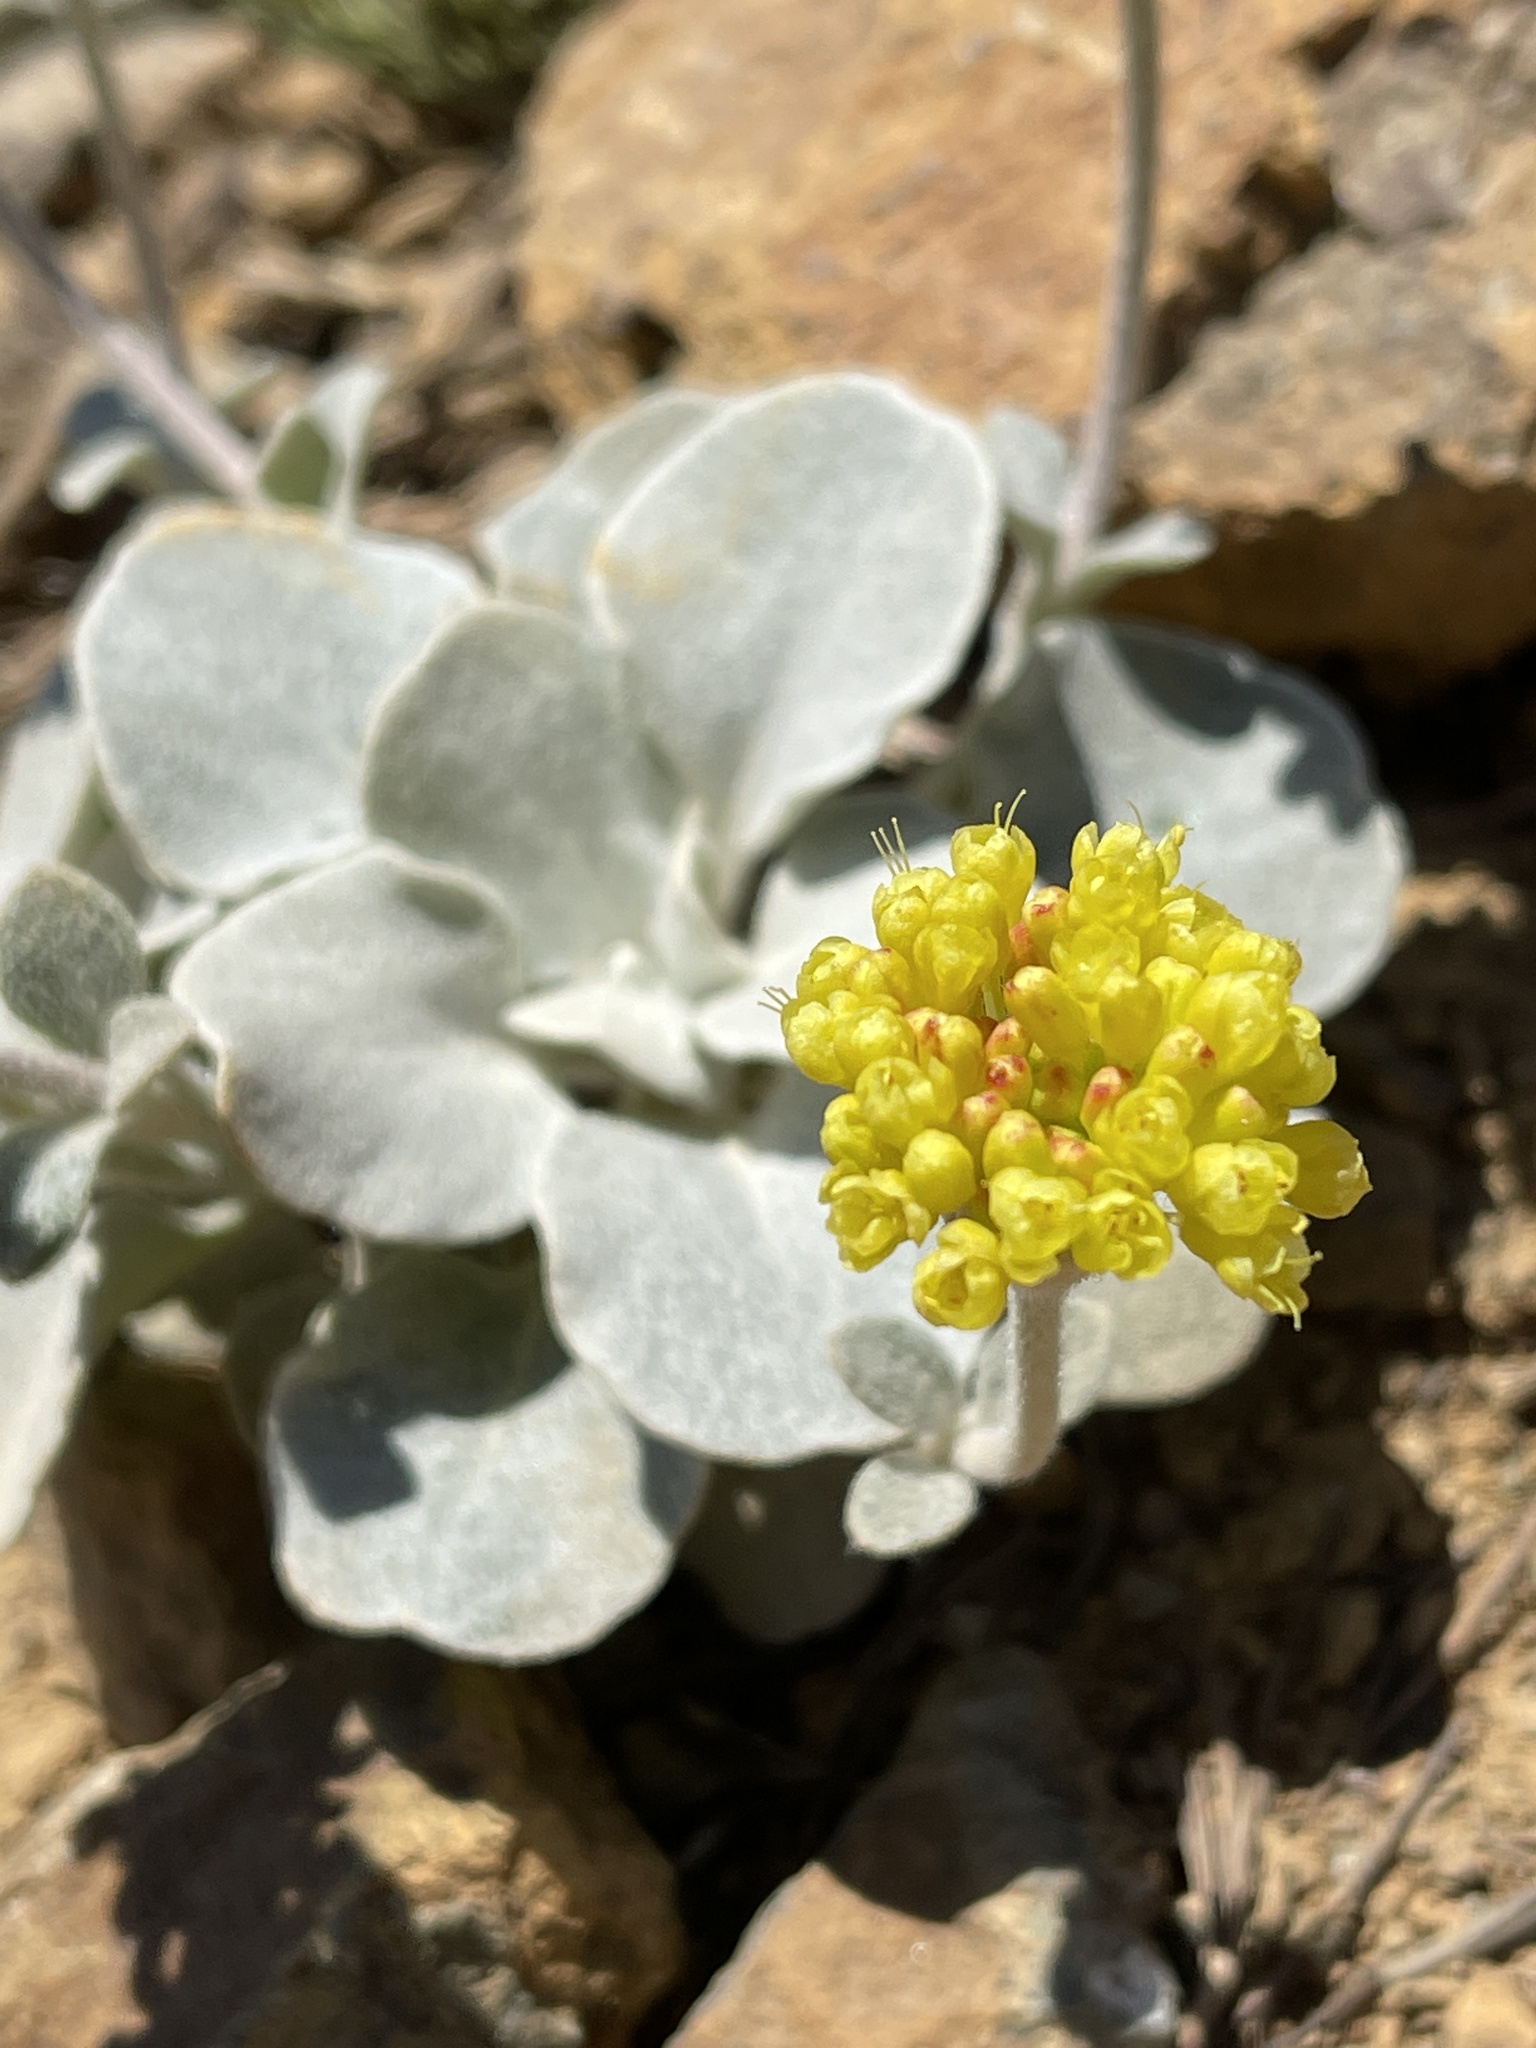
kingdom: Plantae
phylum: Tracheophyta
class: Magnoliopsida
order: Caryophyllales
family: Polygonaceae
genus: Eriogonum
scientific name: Eriogonum alpinum
